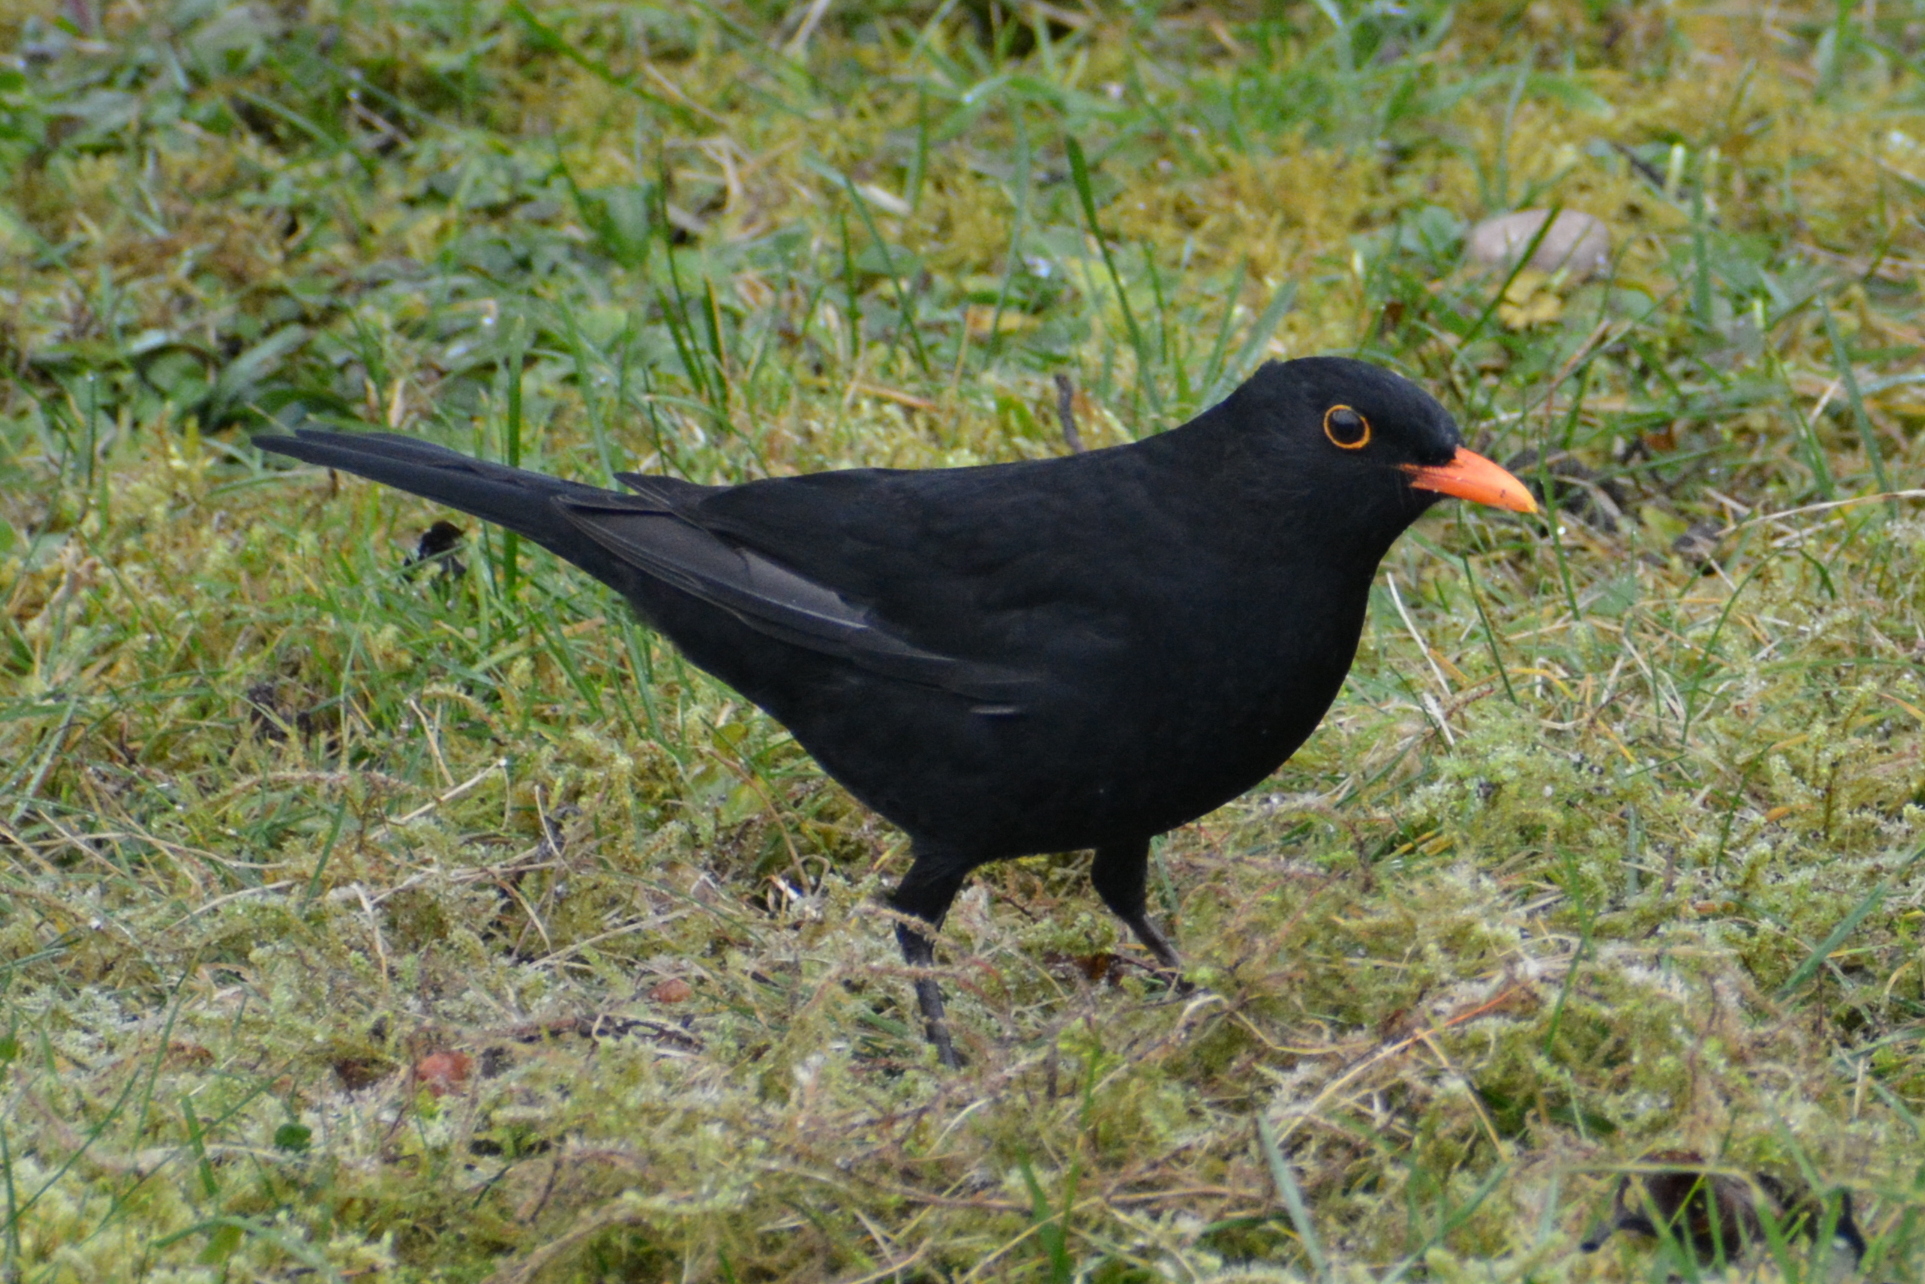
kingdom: Animalia
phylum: Chordata
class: Aves
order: Passeriformes
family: Turdidae
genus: Turdus
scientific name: Turdus merula
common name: Common blackbird
